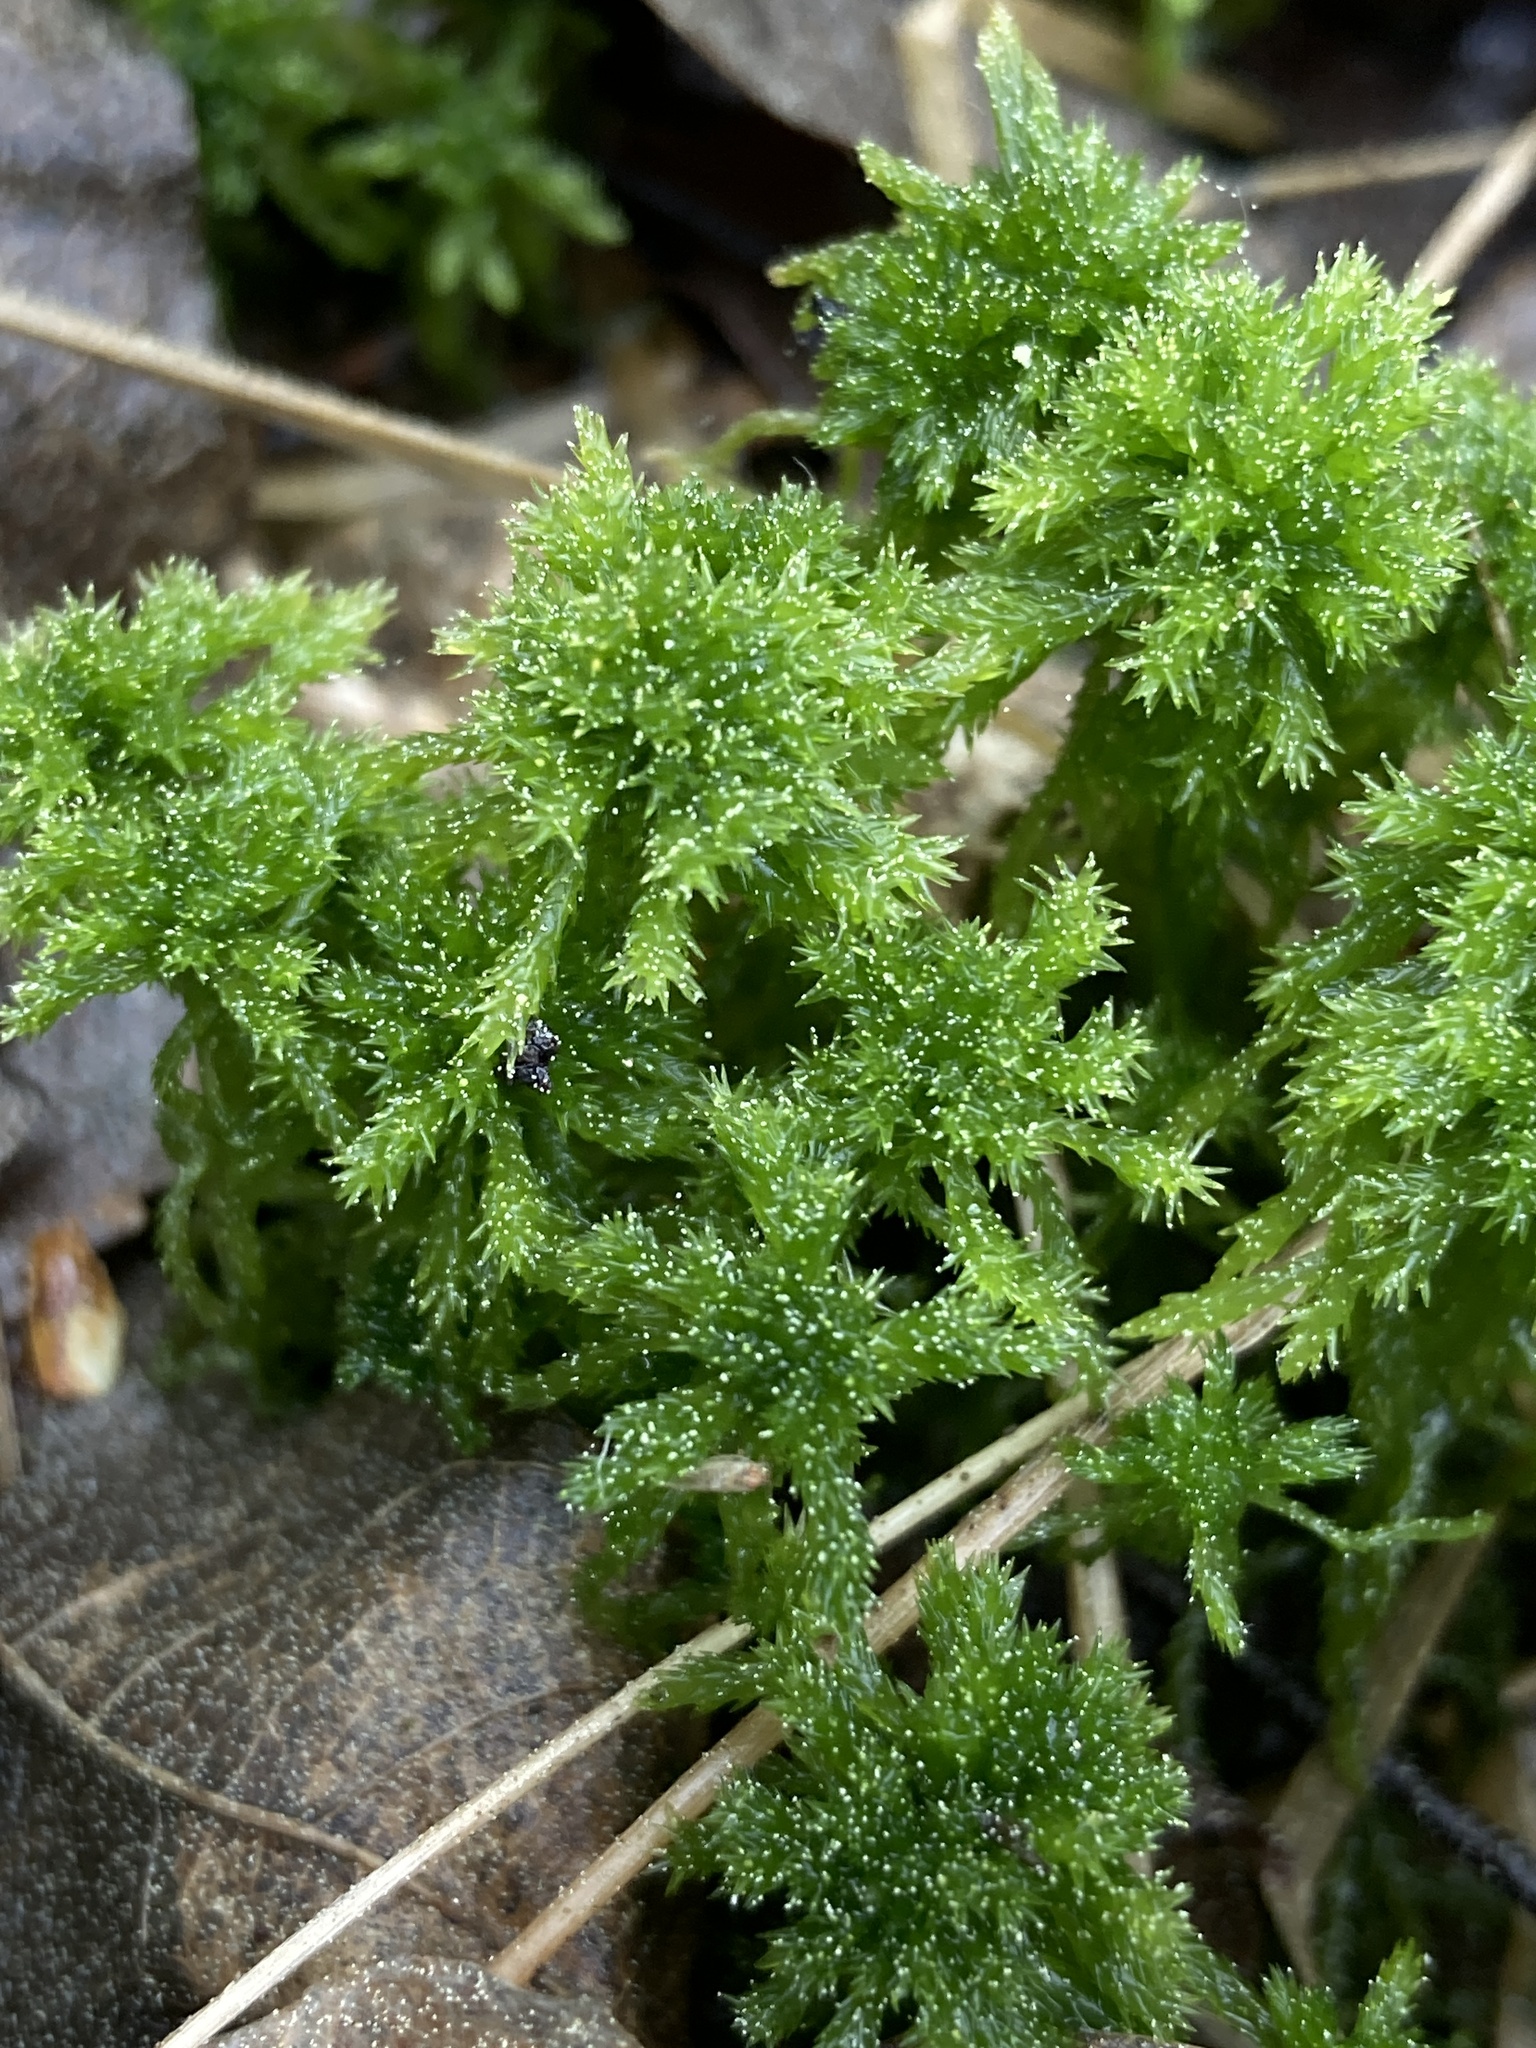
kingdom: Plantae
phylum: Bryophyta
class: Sphagnopsida
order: Sphagnales
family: Sphagnaceae
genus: Sphagnum
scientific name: Sphagnum squarrosum
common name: Shaggy peat moss
